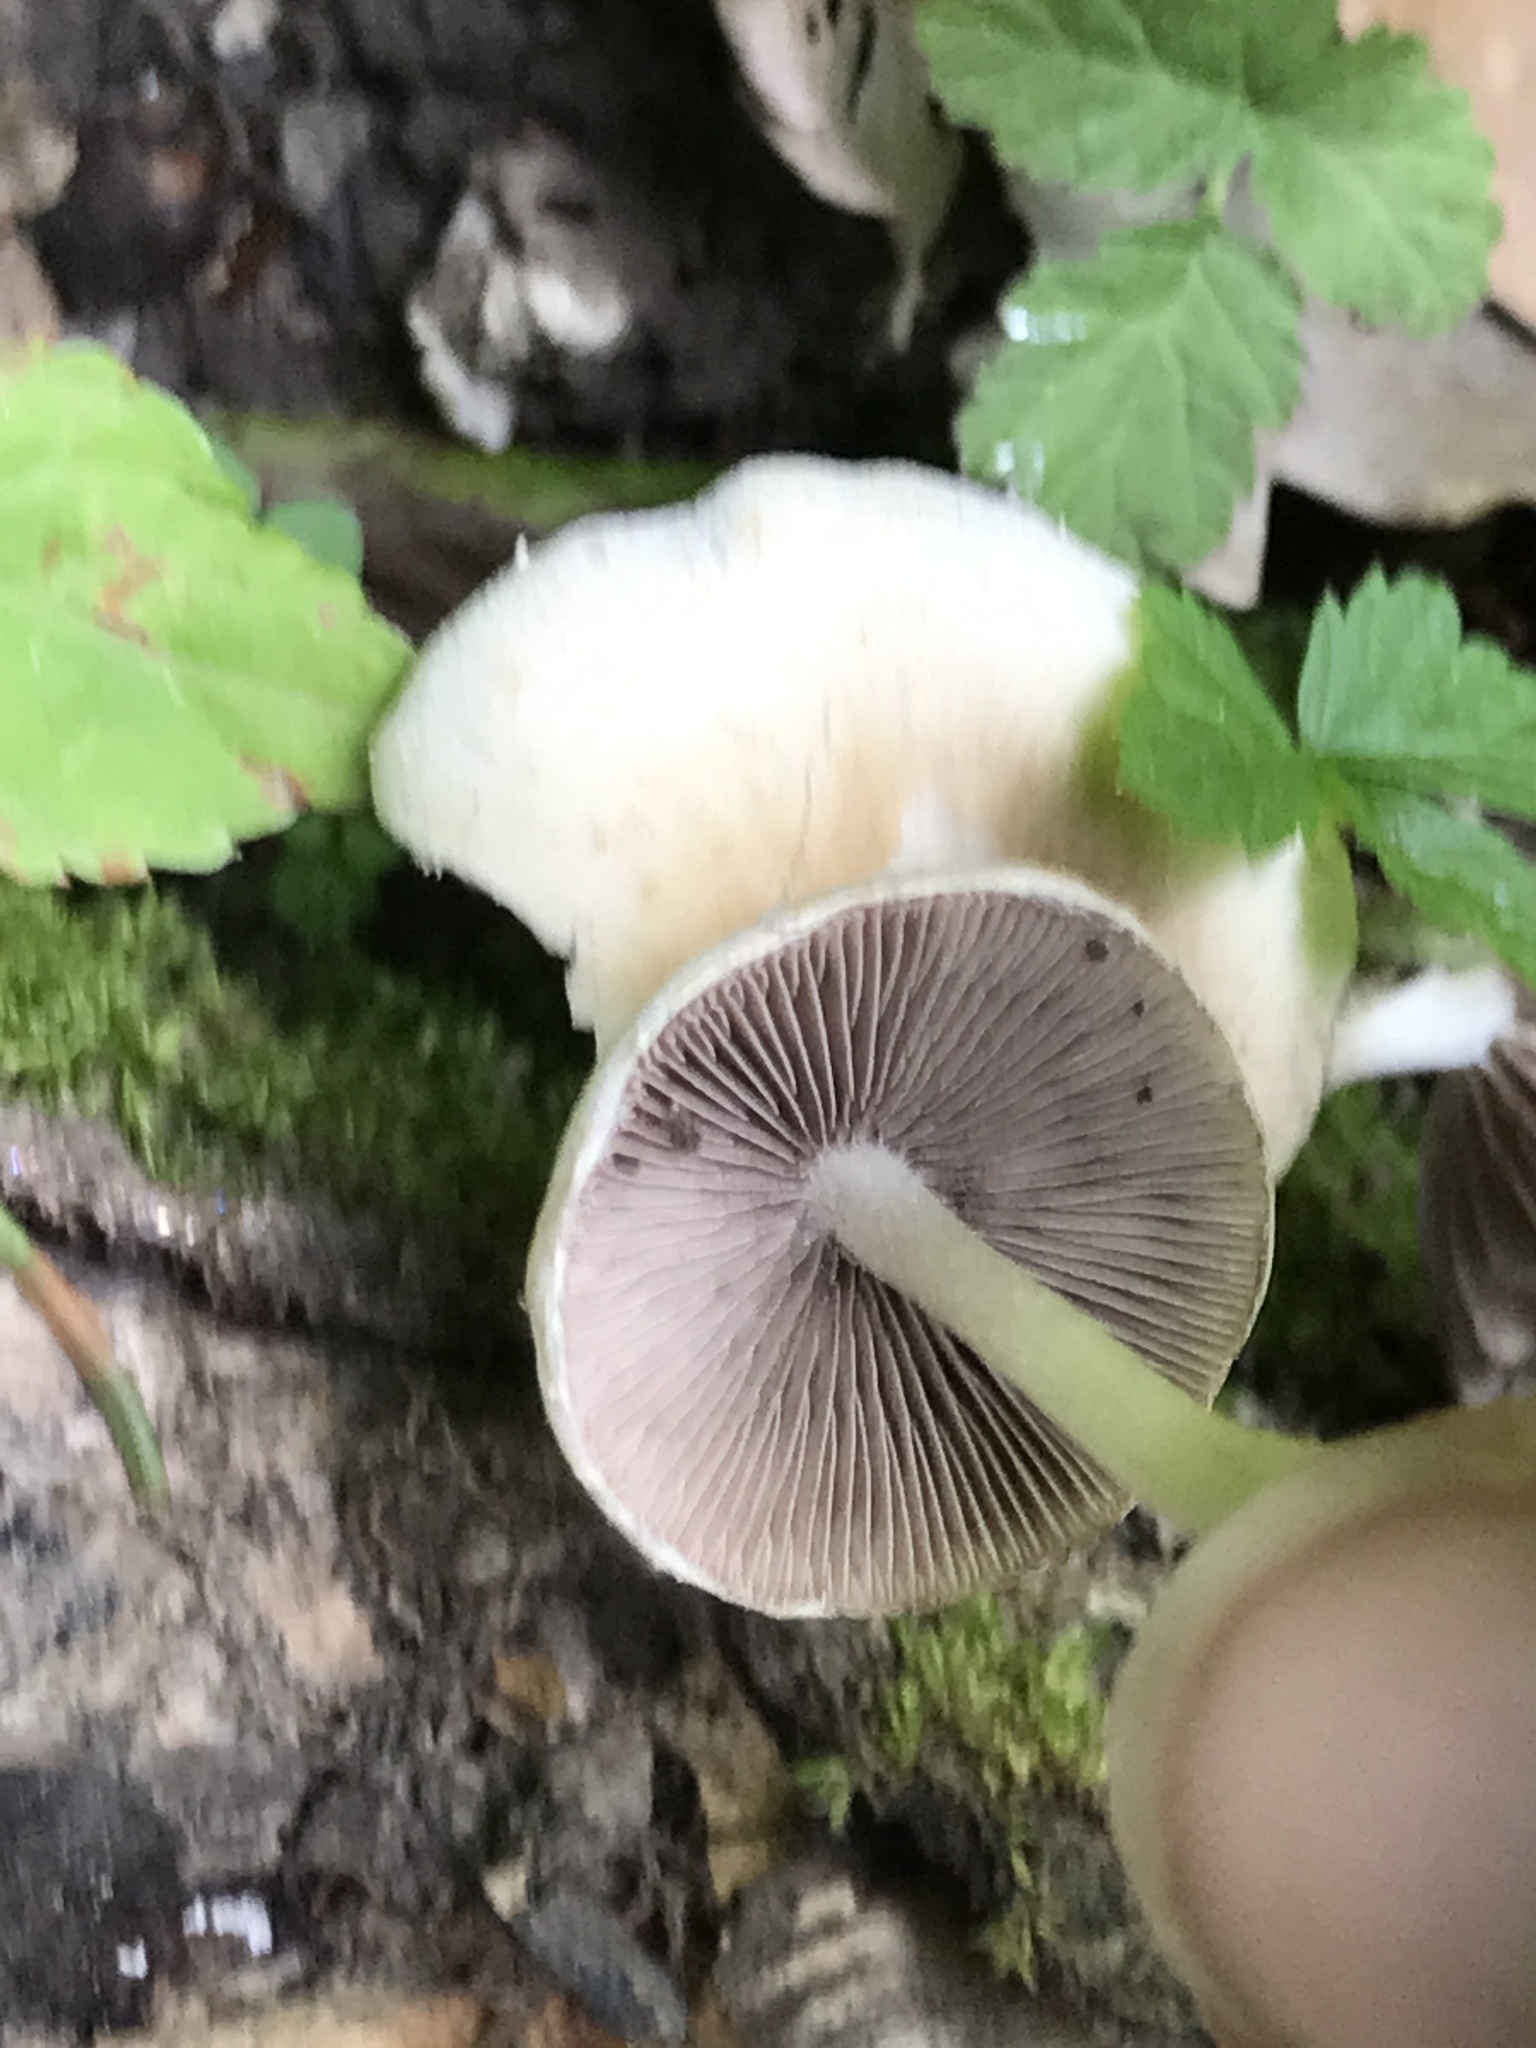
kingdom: Fungi
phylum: Basidiomycota
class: Agaricomycetes
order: Agaricales
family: Psathyrellaceae
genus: Candolleomyces
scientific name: Candolleomyces candolleanus
